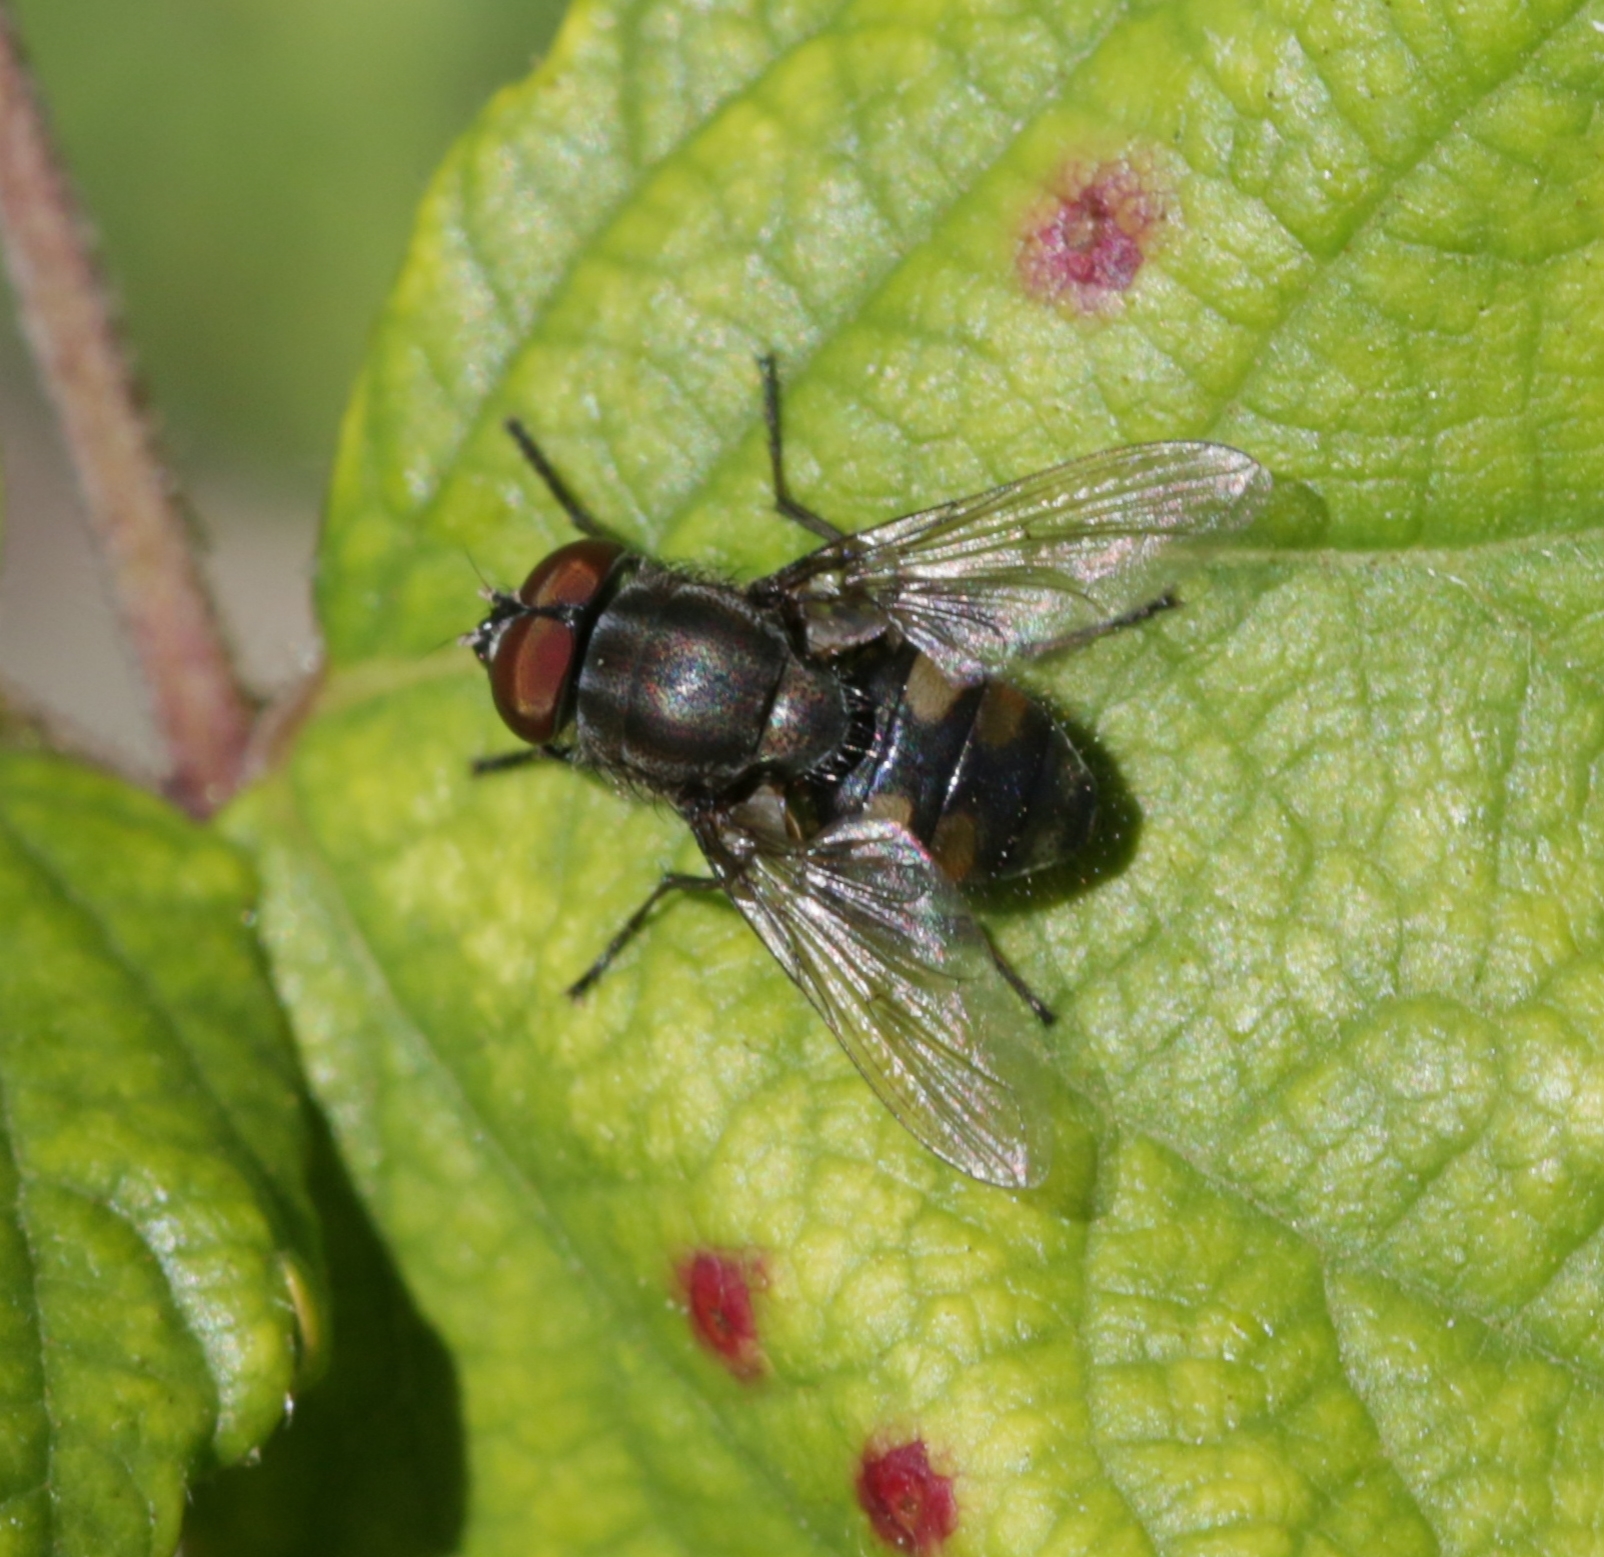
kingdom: Animalia
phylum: Arthropoda
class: Insecta
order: Diptera
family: Calliphoridae
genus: Stomorhina
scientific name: Stomorhina lunata
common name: Locust blowfly
